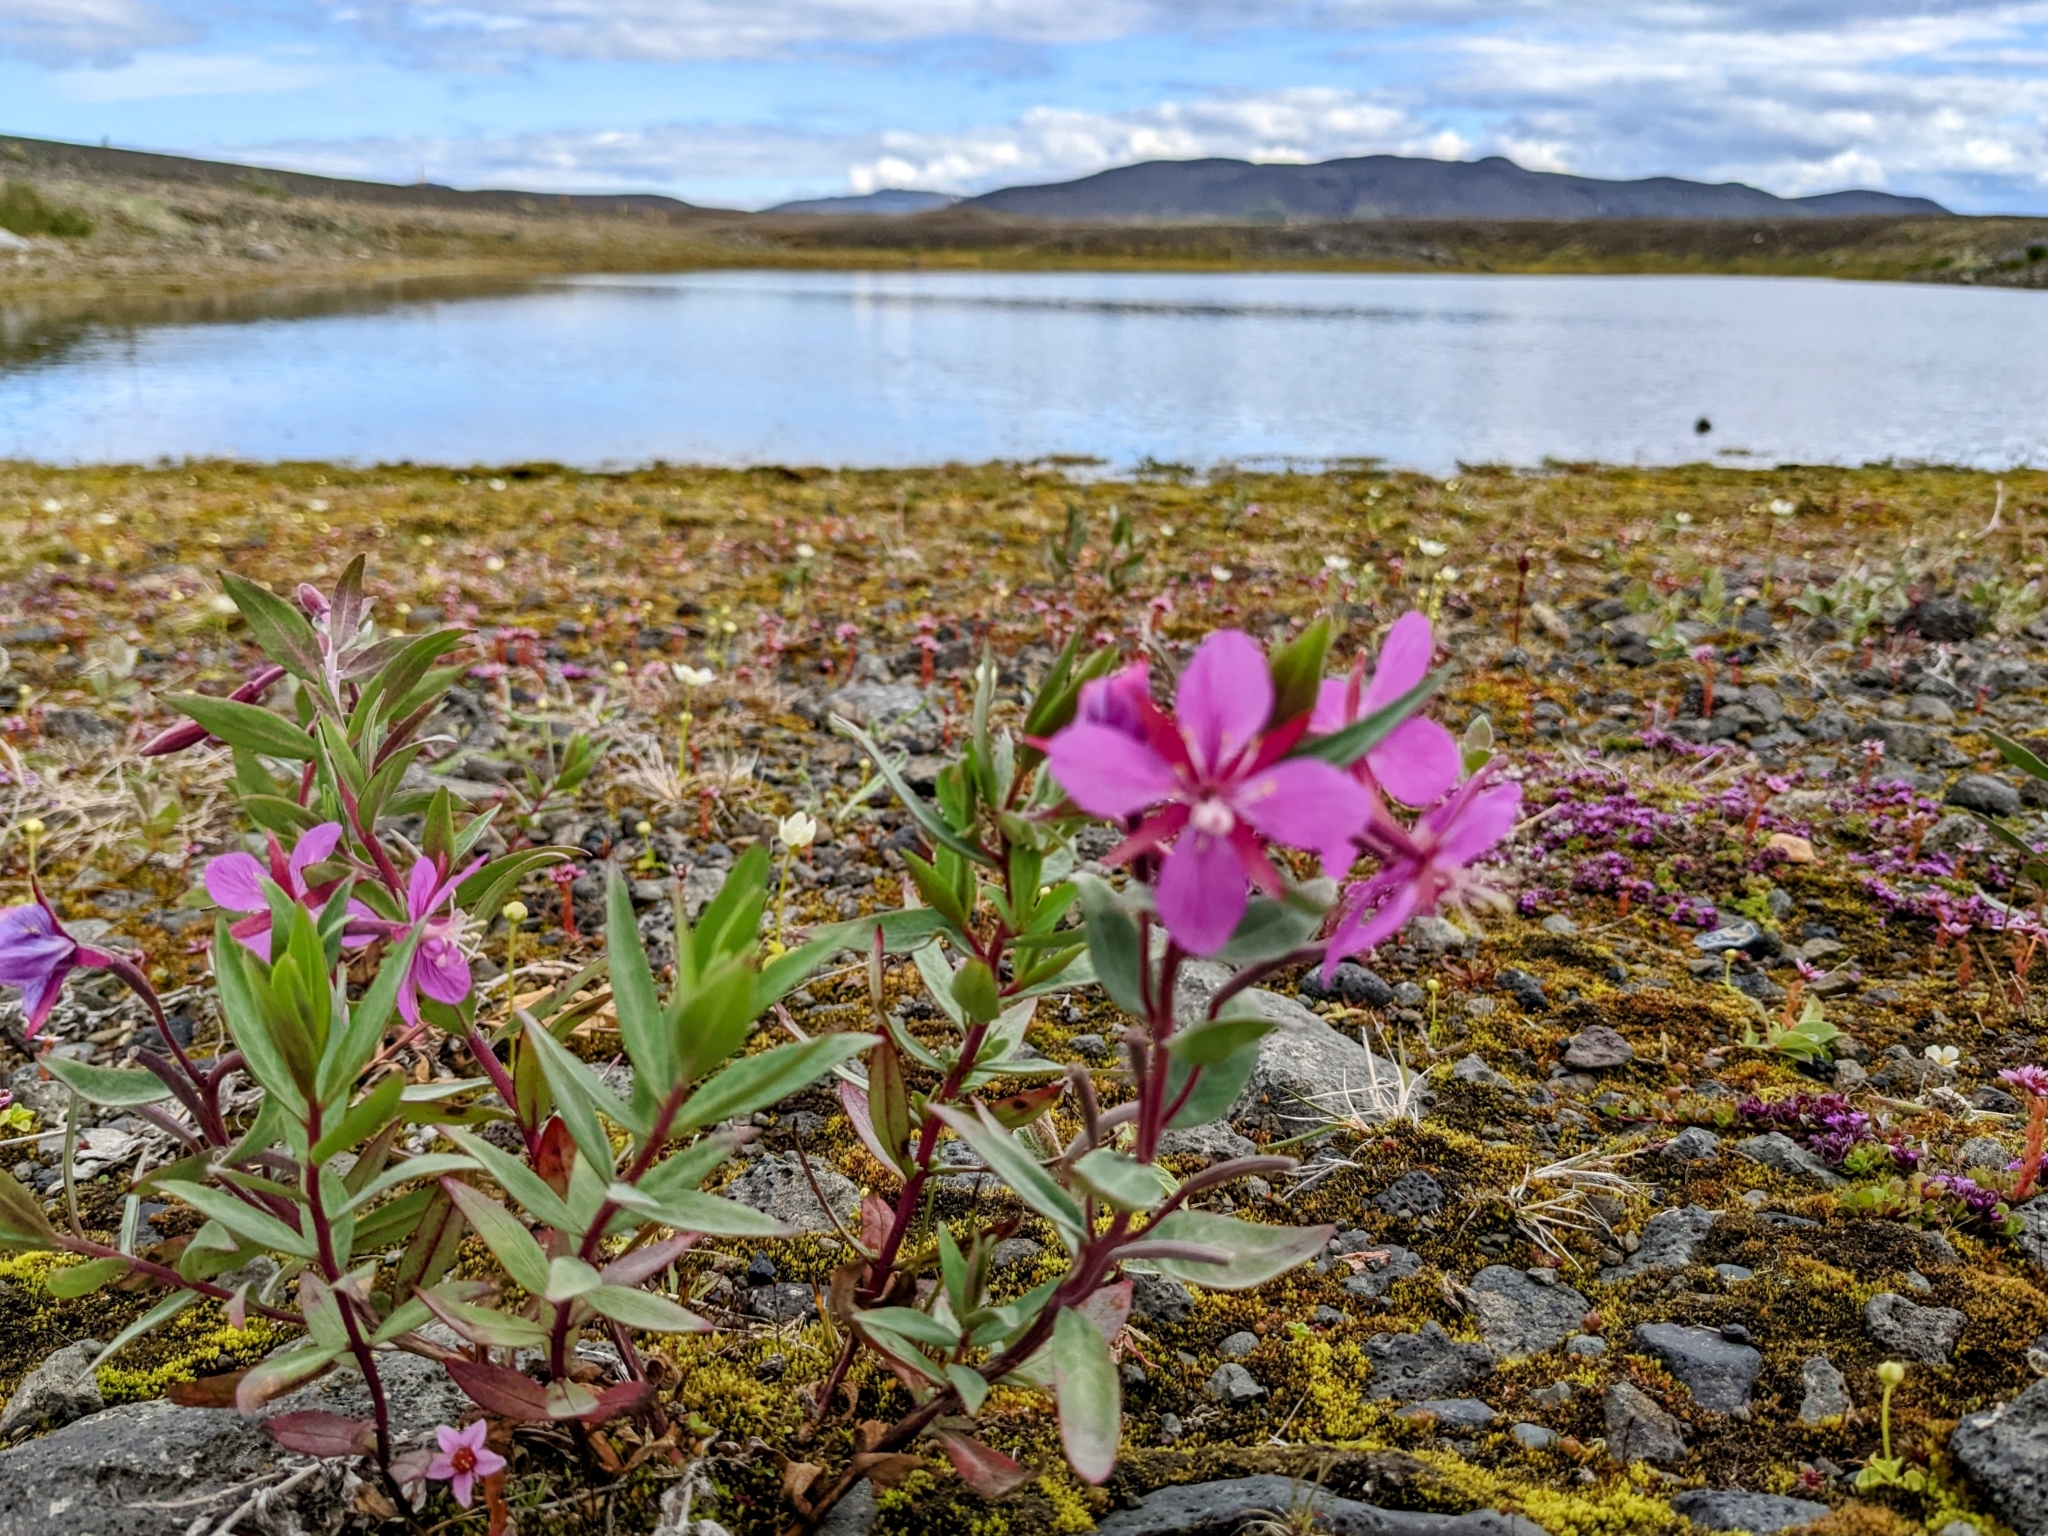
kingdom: Plantae
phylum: Tracheophyta
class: Magnoliopsida
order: Myrtales
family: Onagraceae
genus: Chamaenerion
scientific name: Chamaenerion latifolium
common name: Dwarf fireweed
